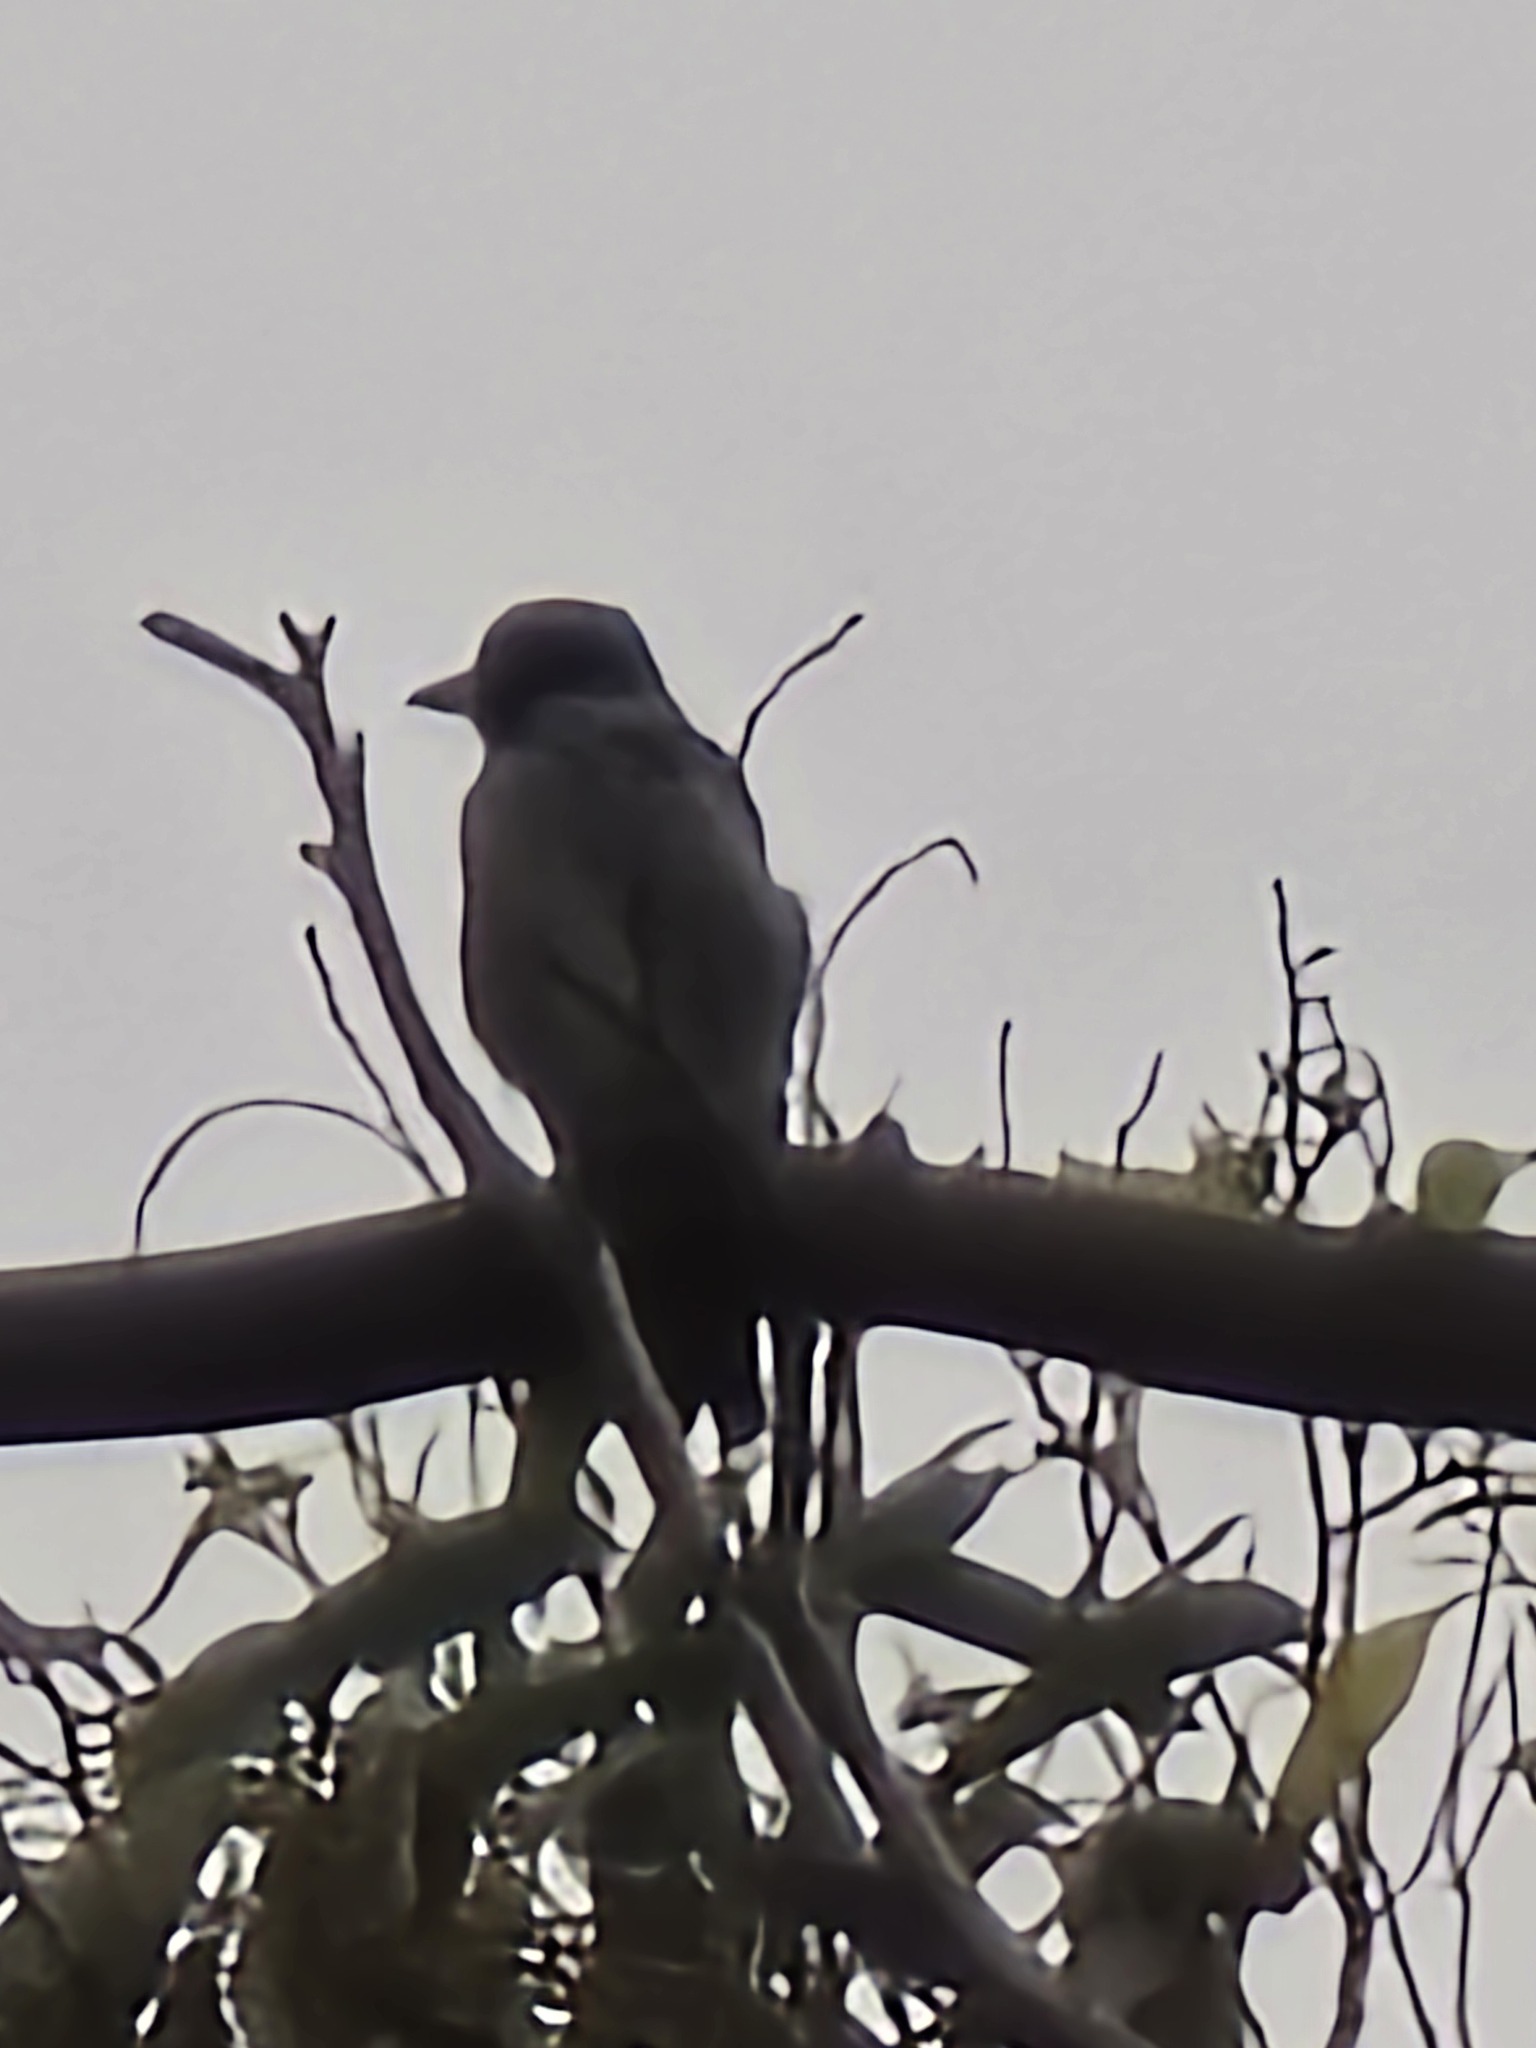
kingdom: Animalia
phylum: Chordata
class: Aves
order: Passeriformes
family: Cracticidae
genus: Cracticus
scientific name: Cracticus torquatus
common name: Grey butcherbird
